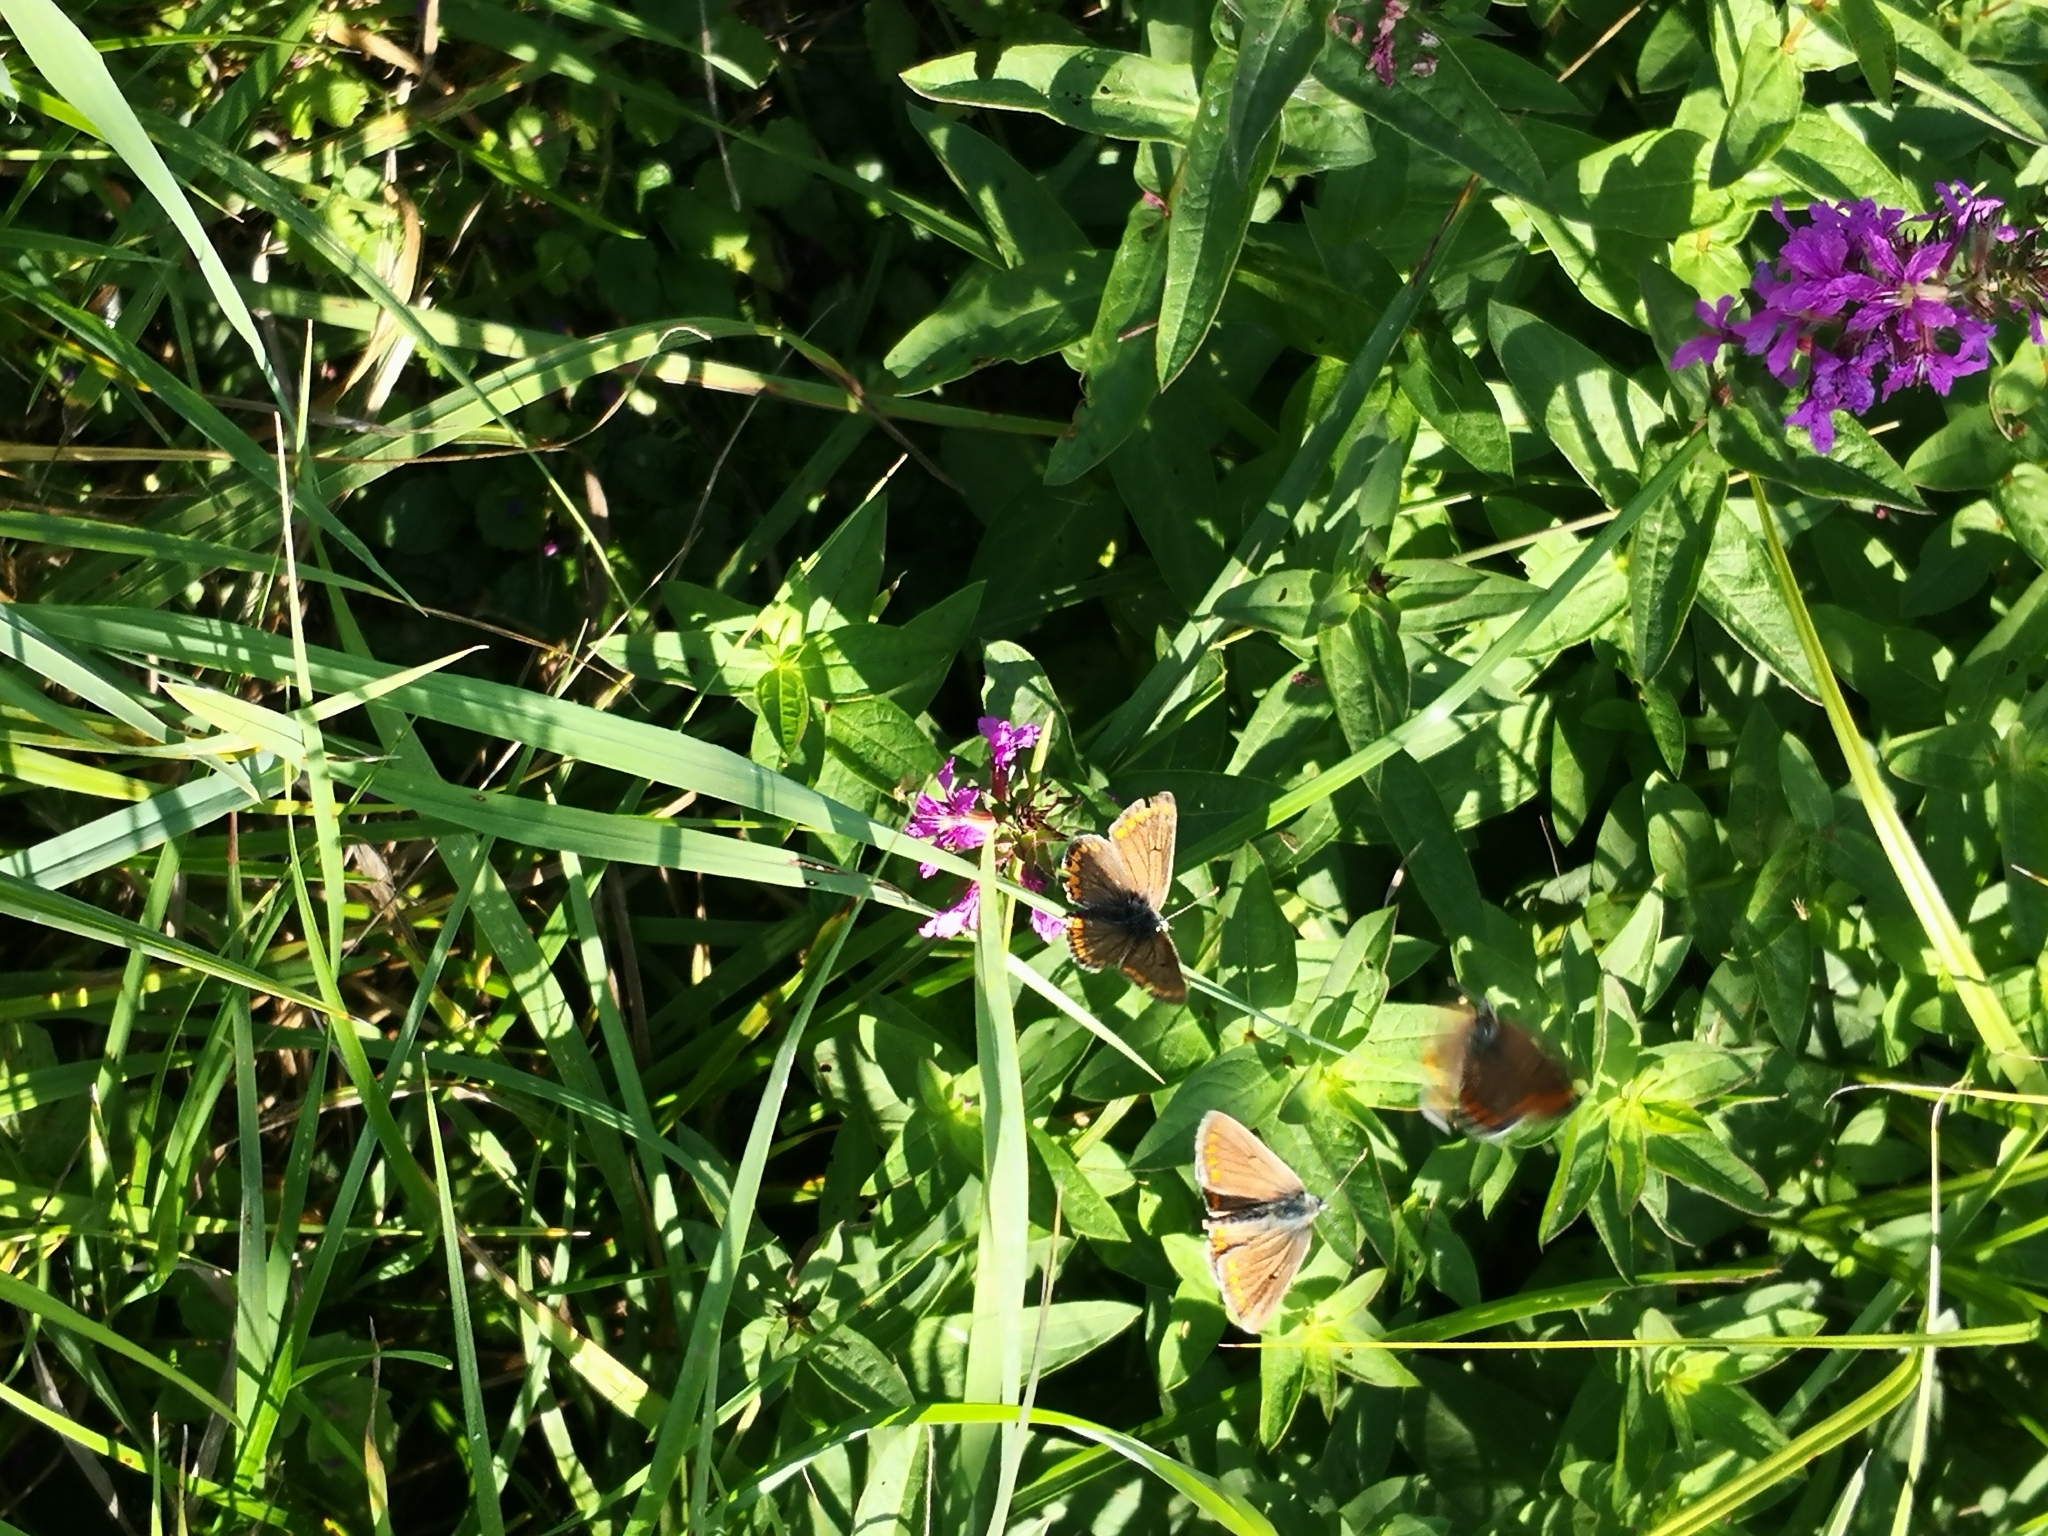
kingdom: Animalia
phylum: Arthropoda
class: Insecta
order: Lepidoptera
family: Lycaenidae
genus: Aricia
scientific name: Aricia agestis
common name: Brown argus
